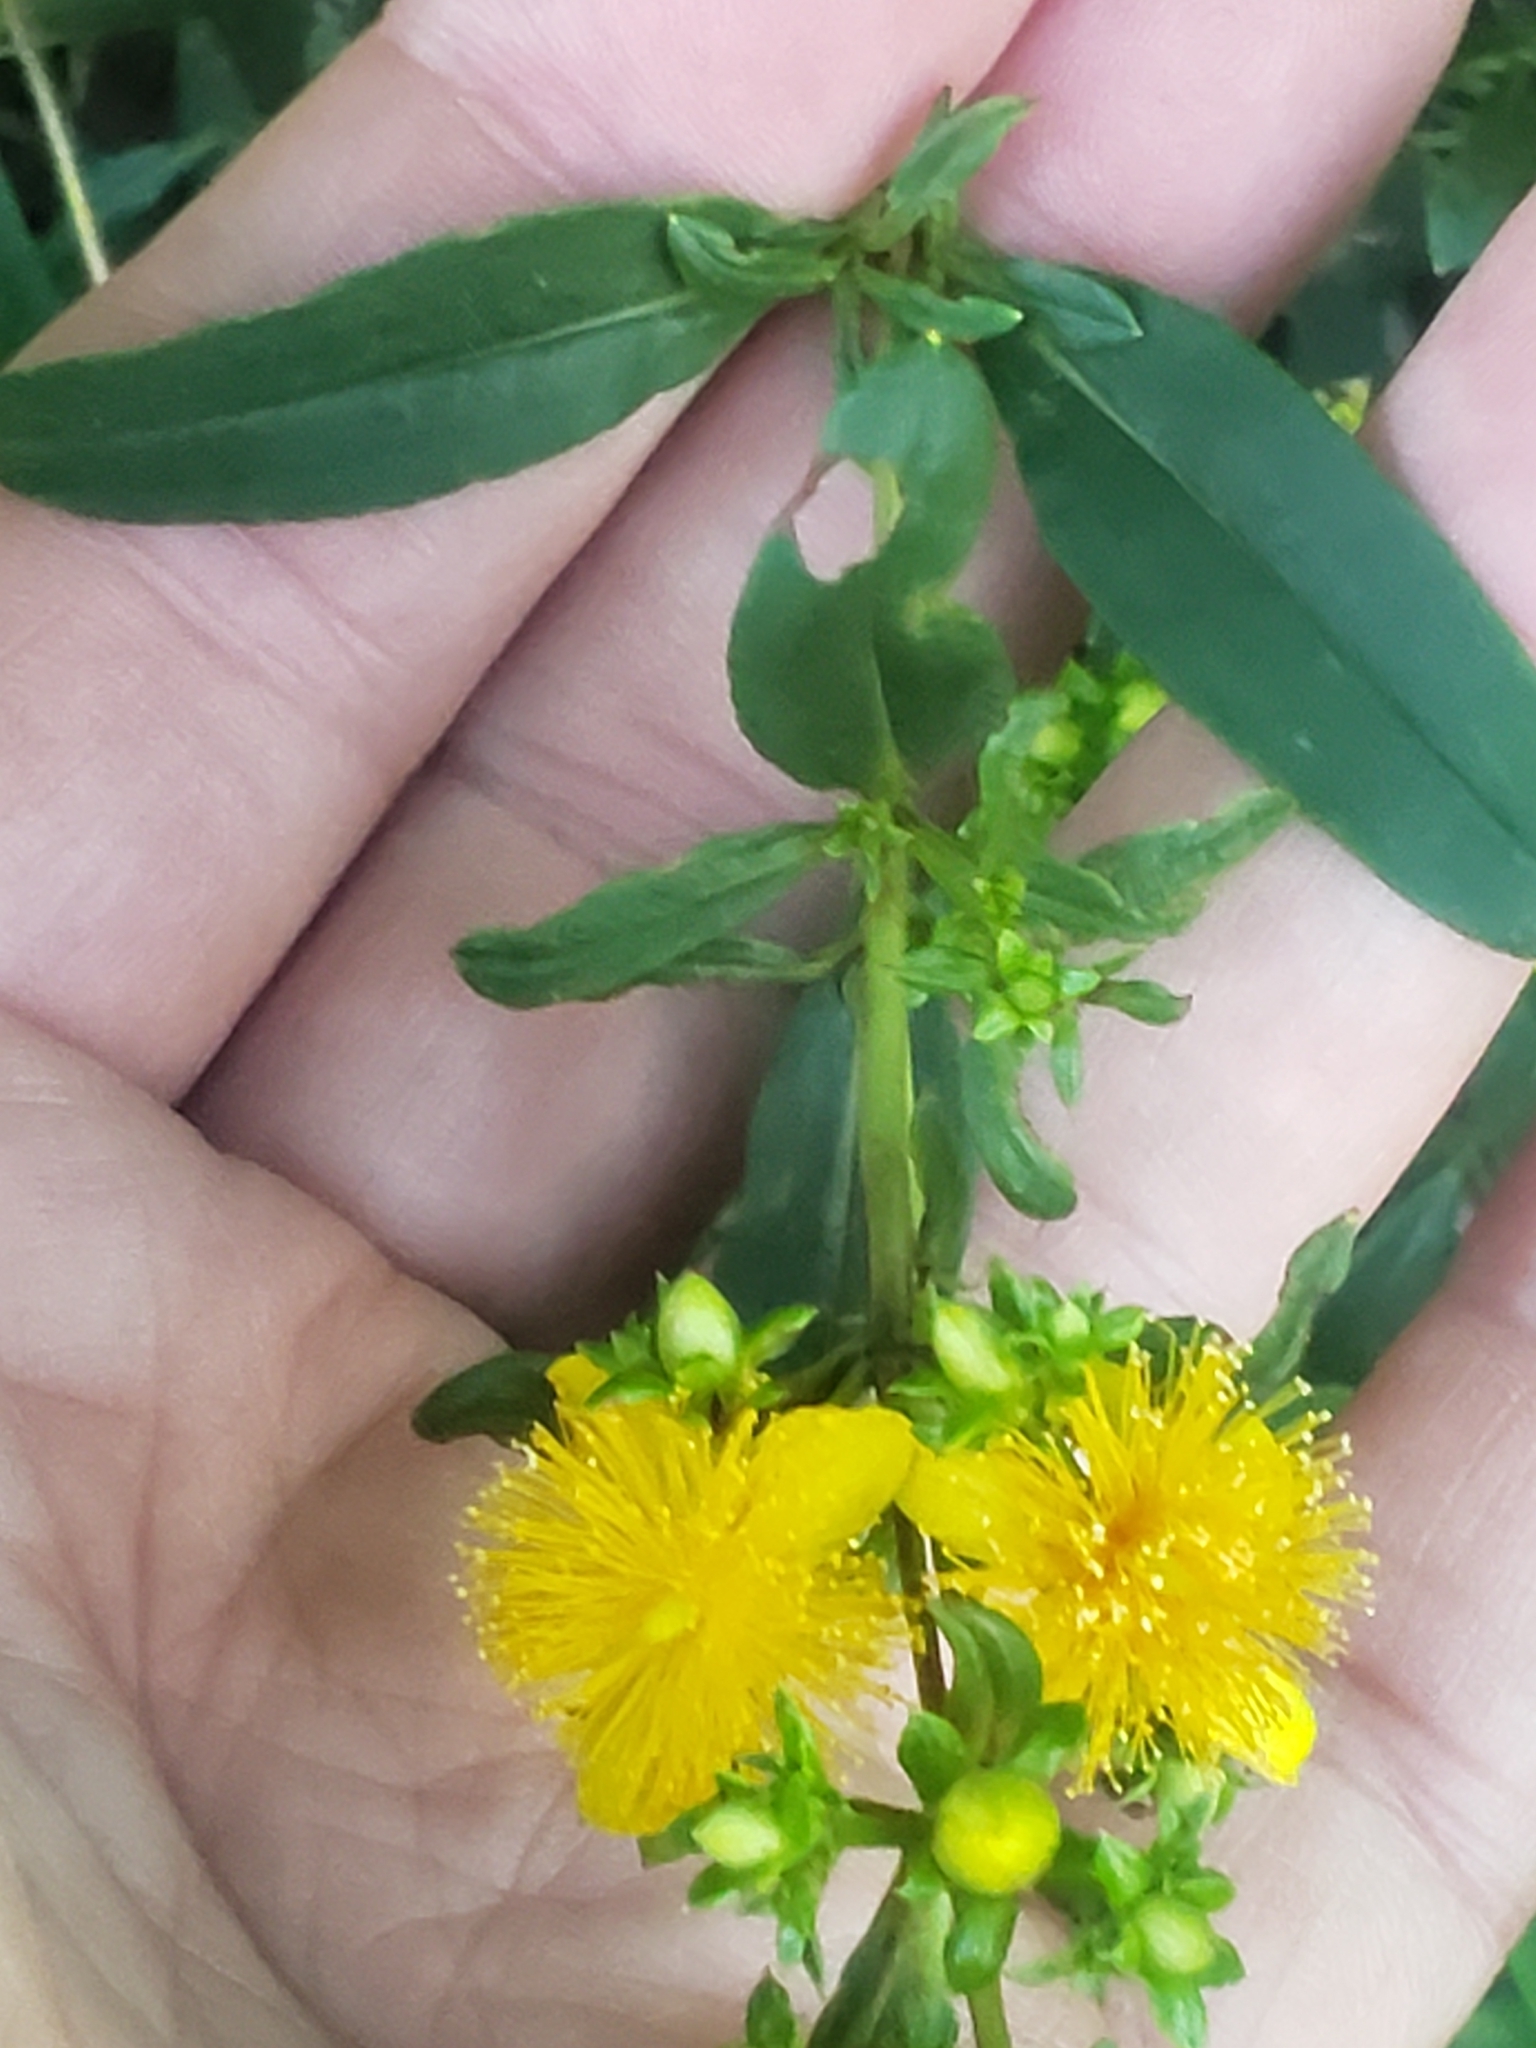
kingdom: Plantae
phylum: Tracheophyta
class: Magnoliopsida
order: Malpighiales
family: Hypericaceae
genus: Hypericum
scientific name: Hypericum prolificum
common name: Shrubby st. john's-wort
